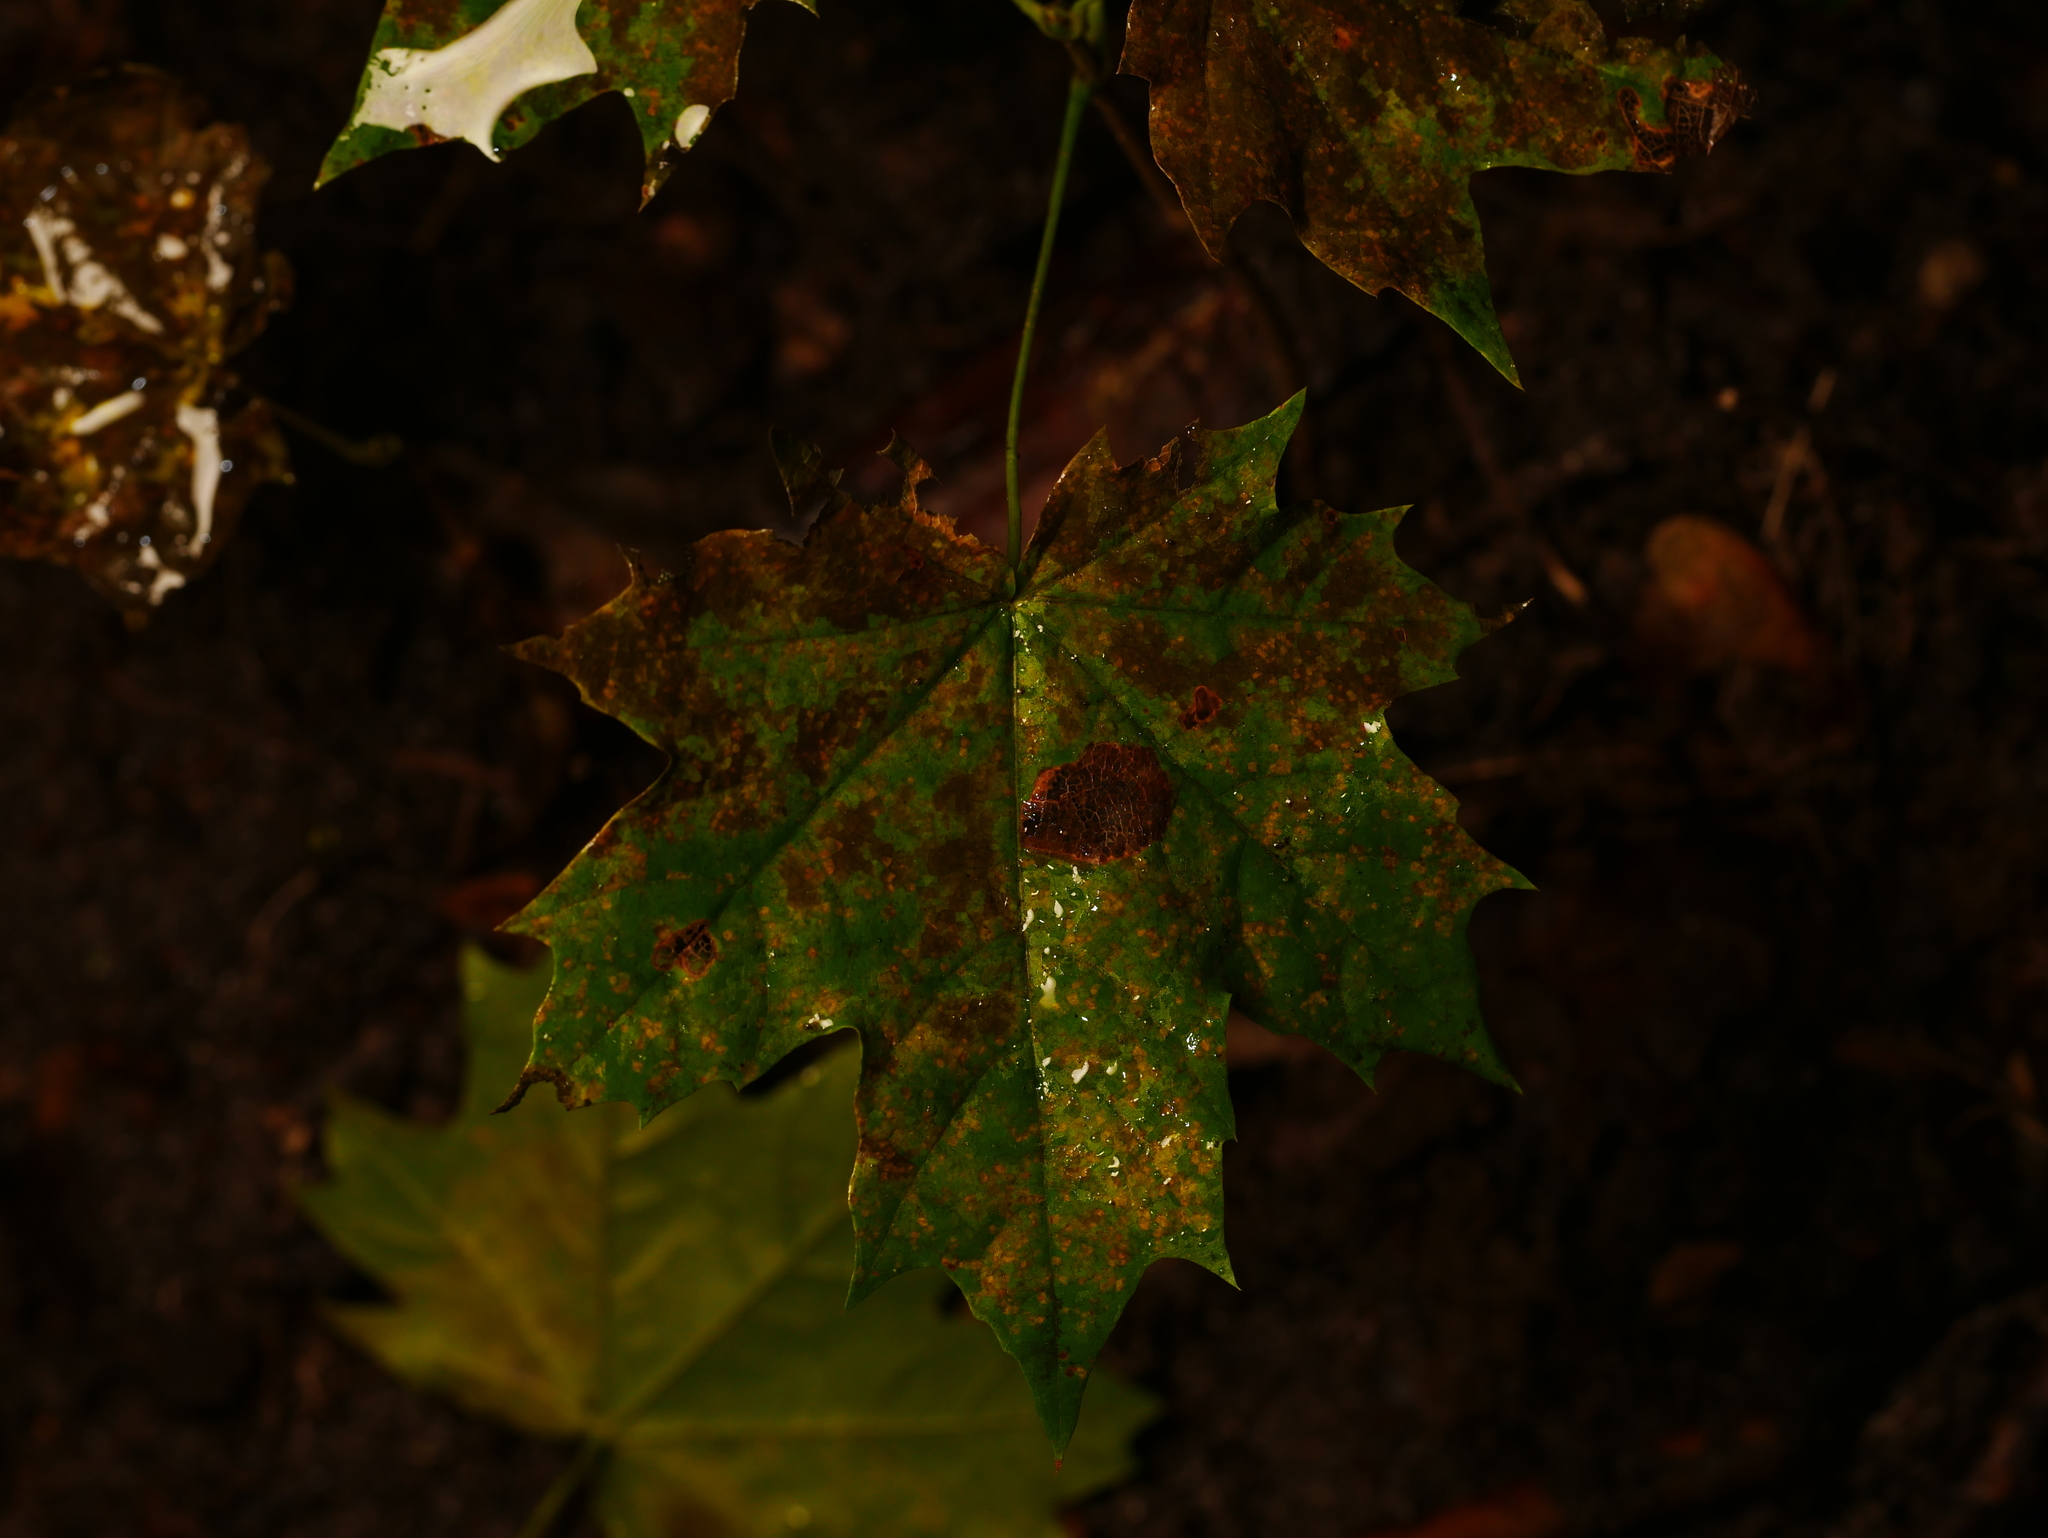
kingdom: Plantae
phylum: Tracheophyta
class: Magnoliopsida
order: Sapindales
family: Sapindaceae
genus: Acer
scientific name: Acer platanoides
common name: Norway maple
